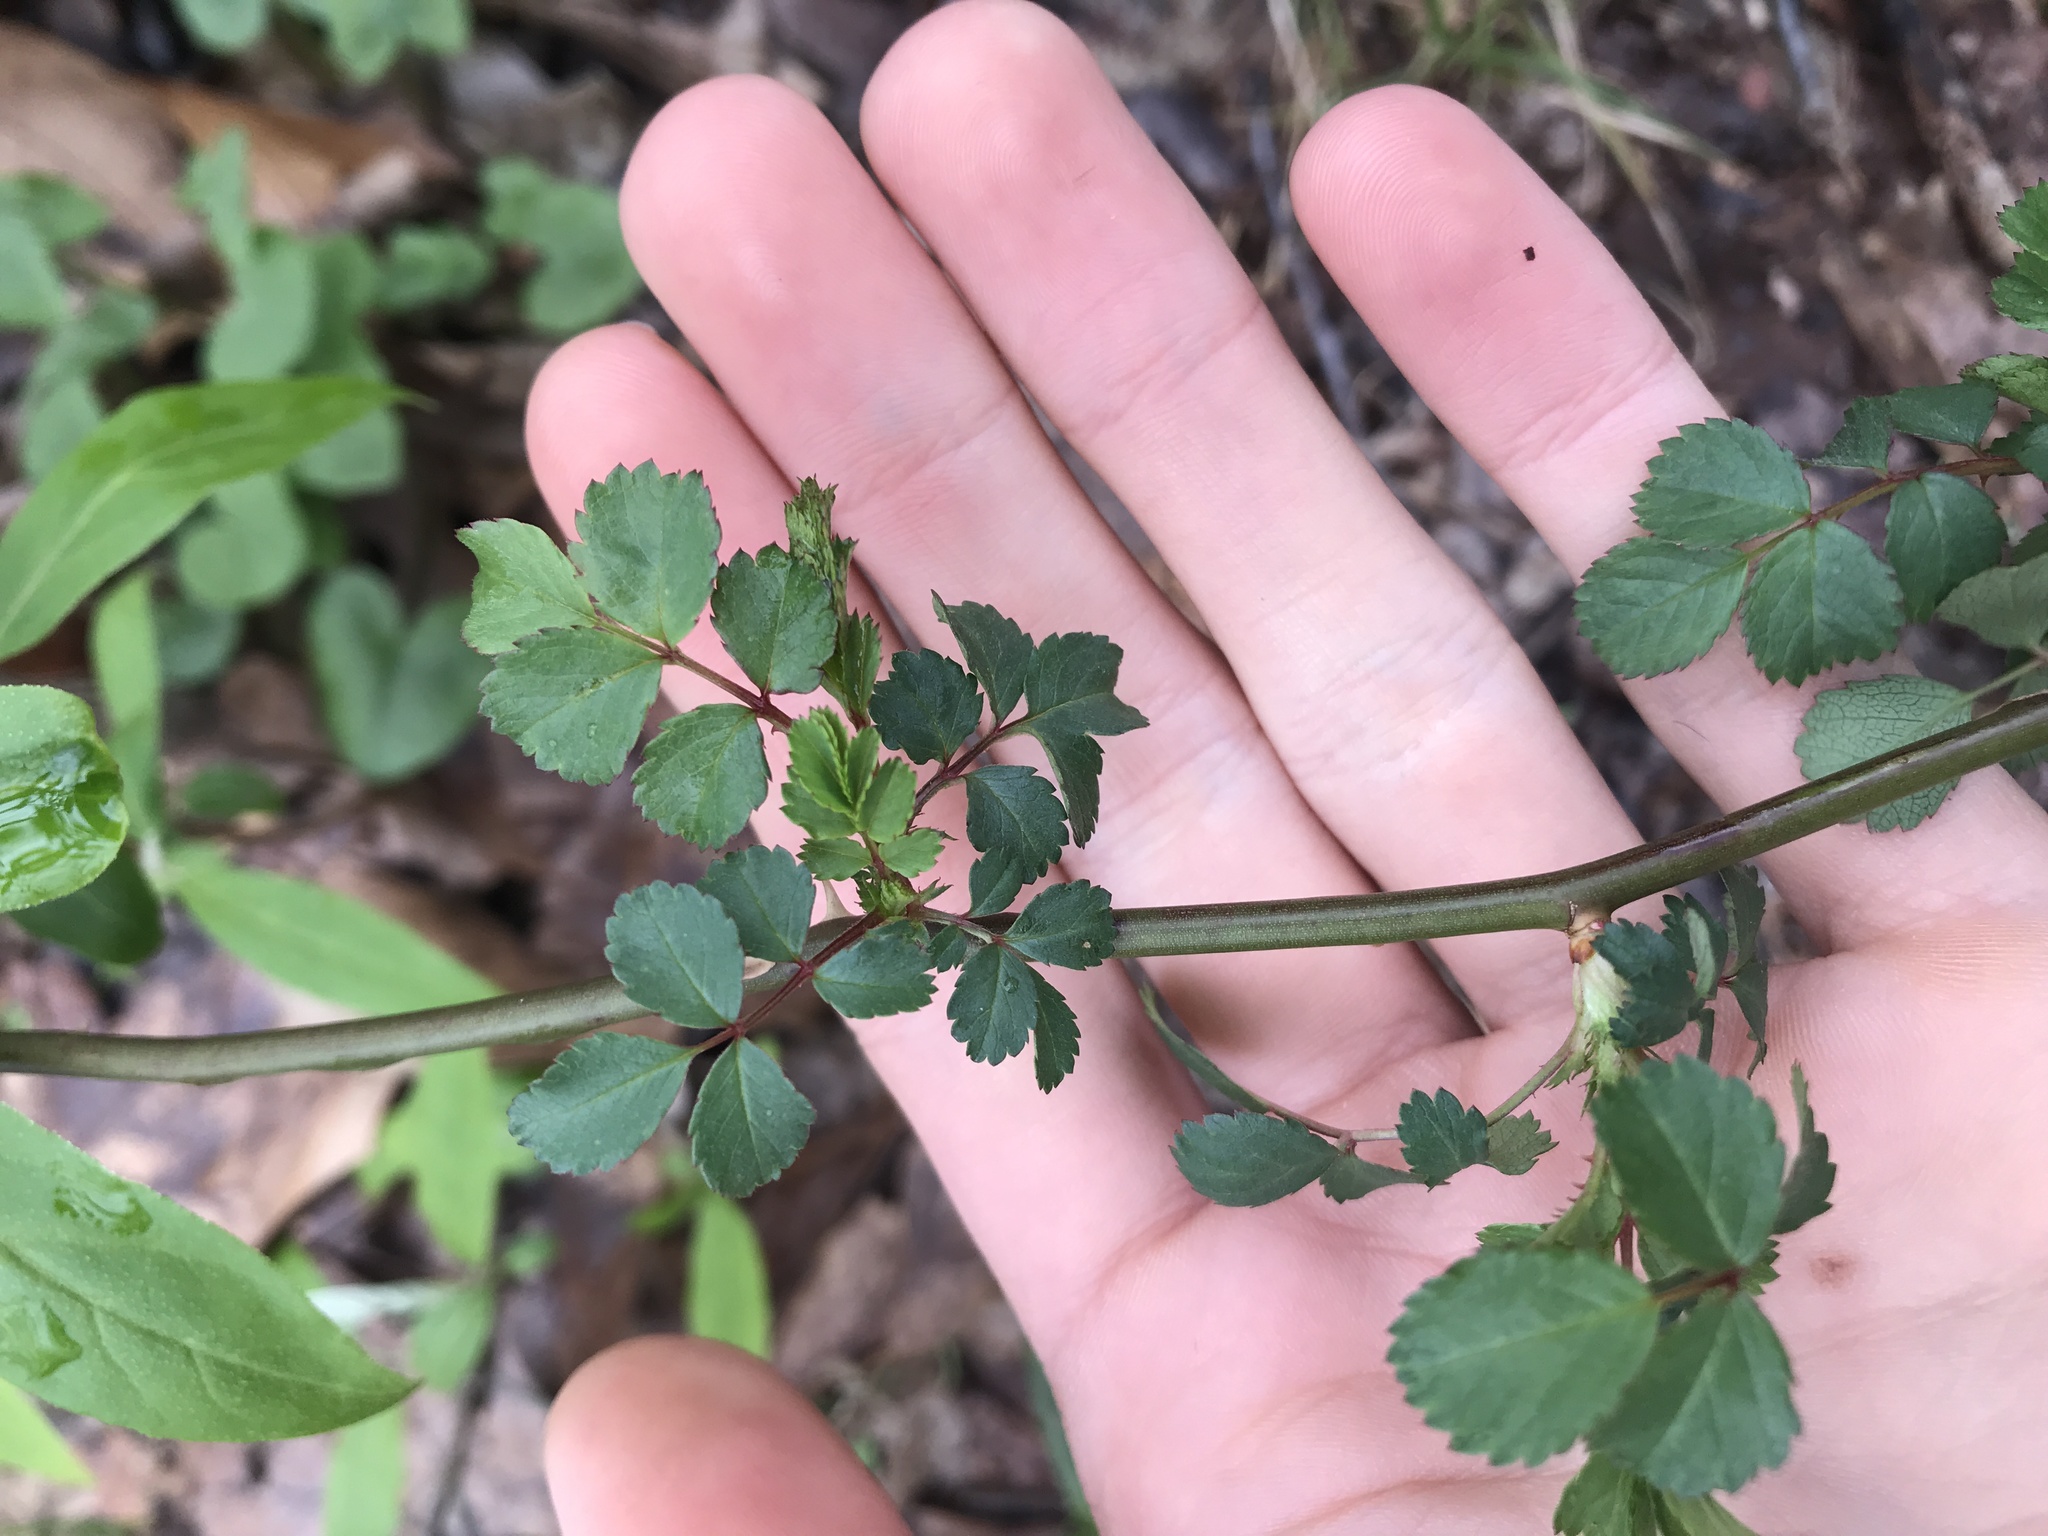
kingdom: Plantae
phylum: Tracheophyta
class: Magnoliopsida
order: Rosales
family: Rosaceae
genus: Rosa
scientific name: Rosa multiflora
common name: Multiflora rose
